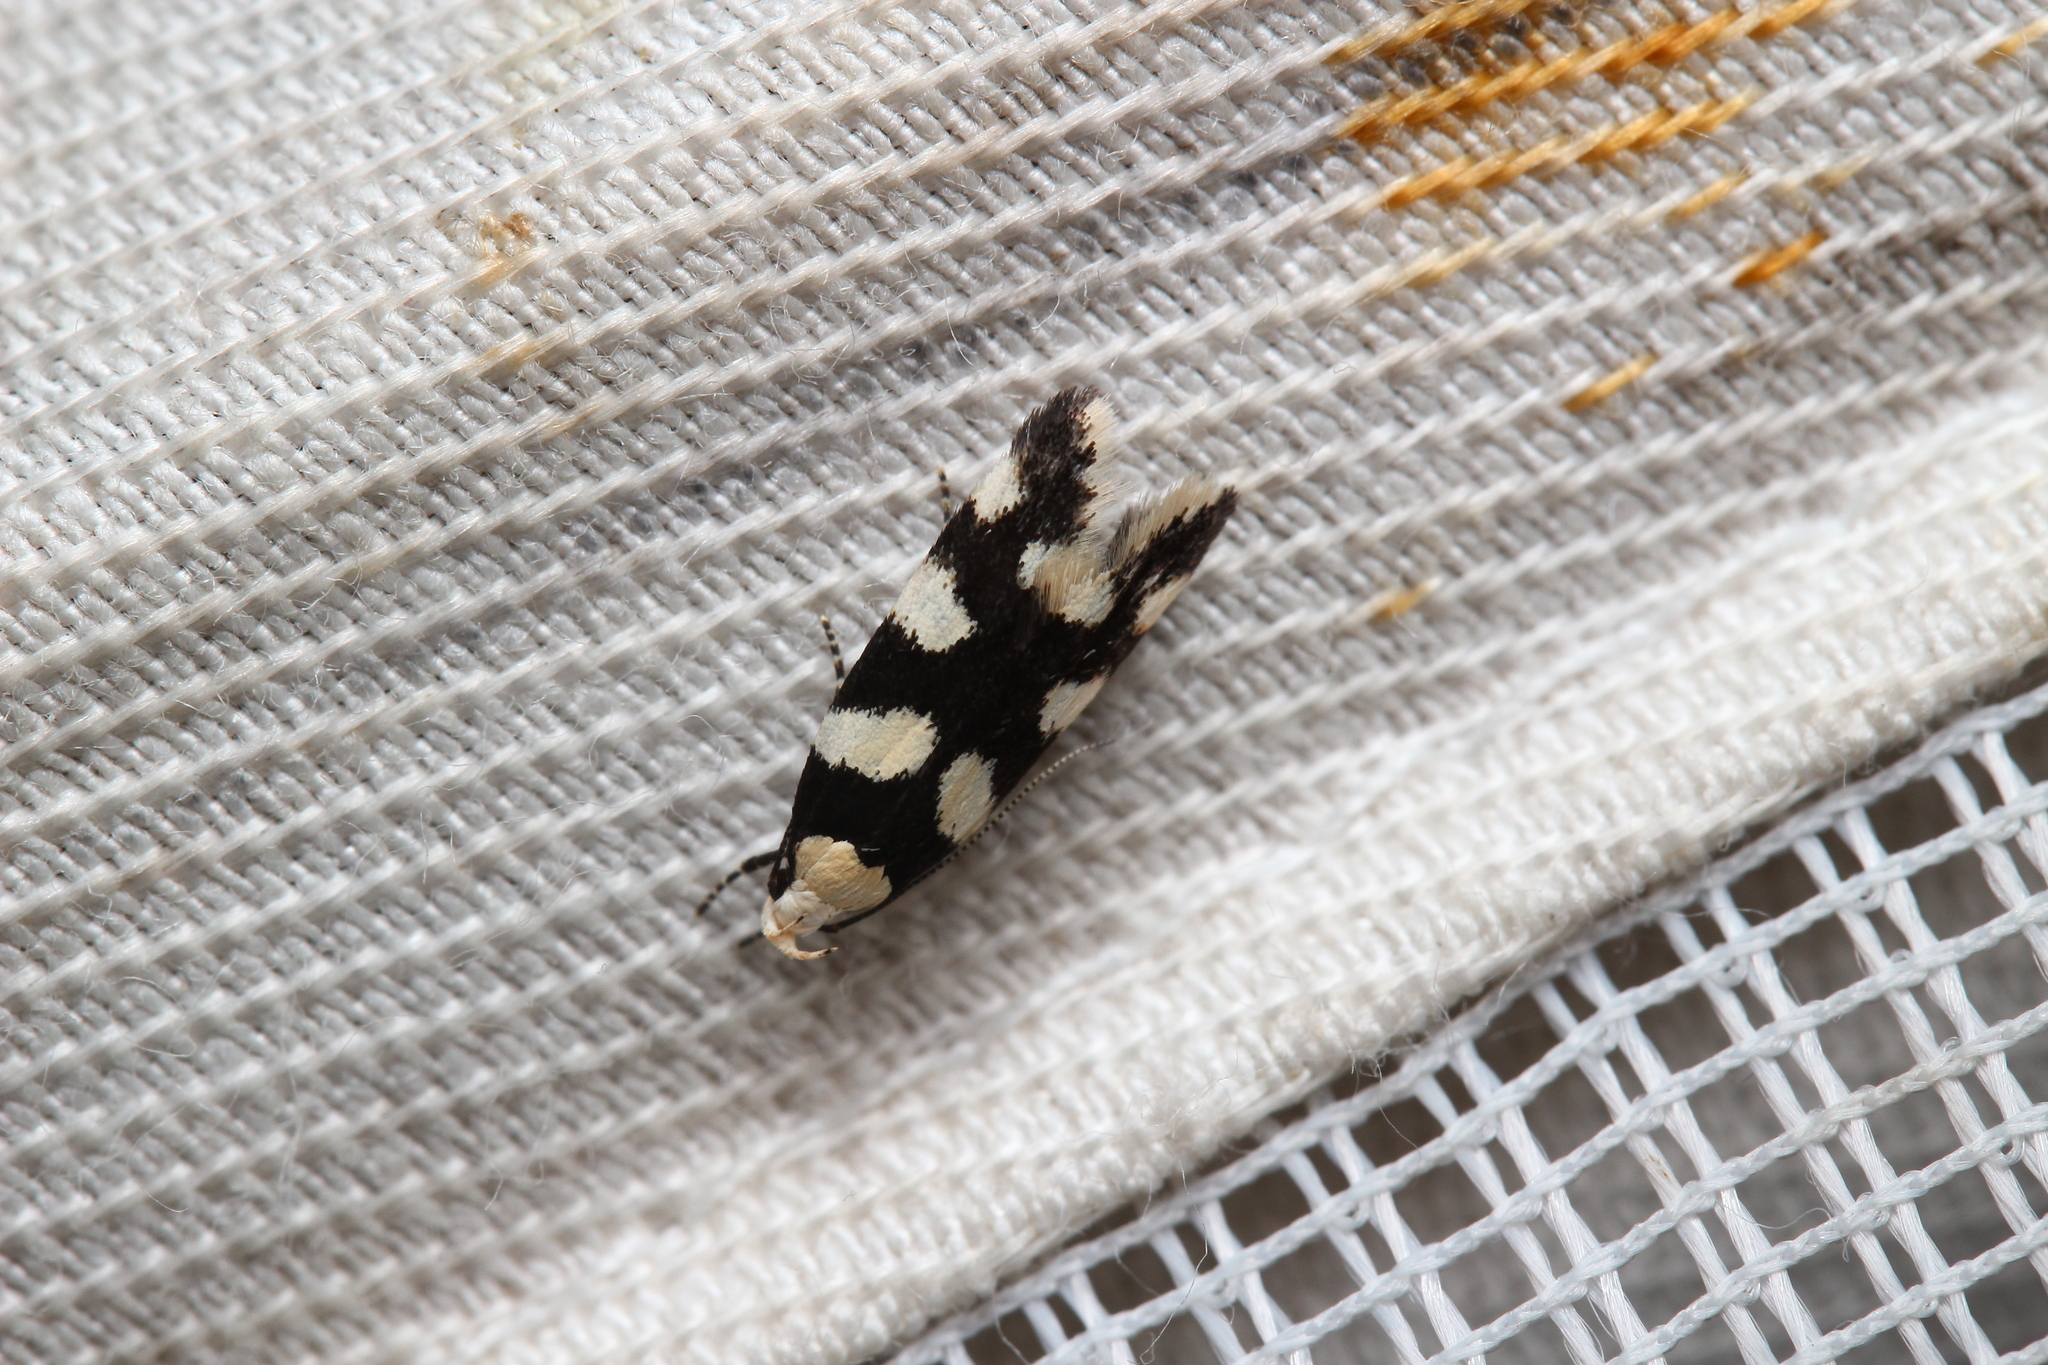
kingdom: Animalia
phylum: Arthropoda
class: Insecta
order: Lepidoptera
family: Gelechiidae
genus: Pseudotelphusa
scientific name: Pseudotelphusa tessella
